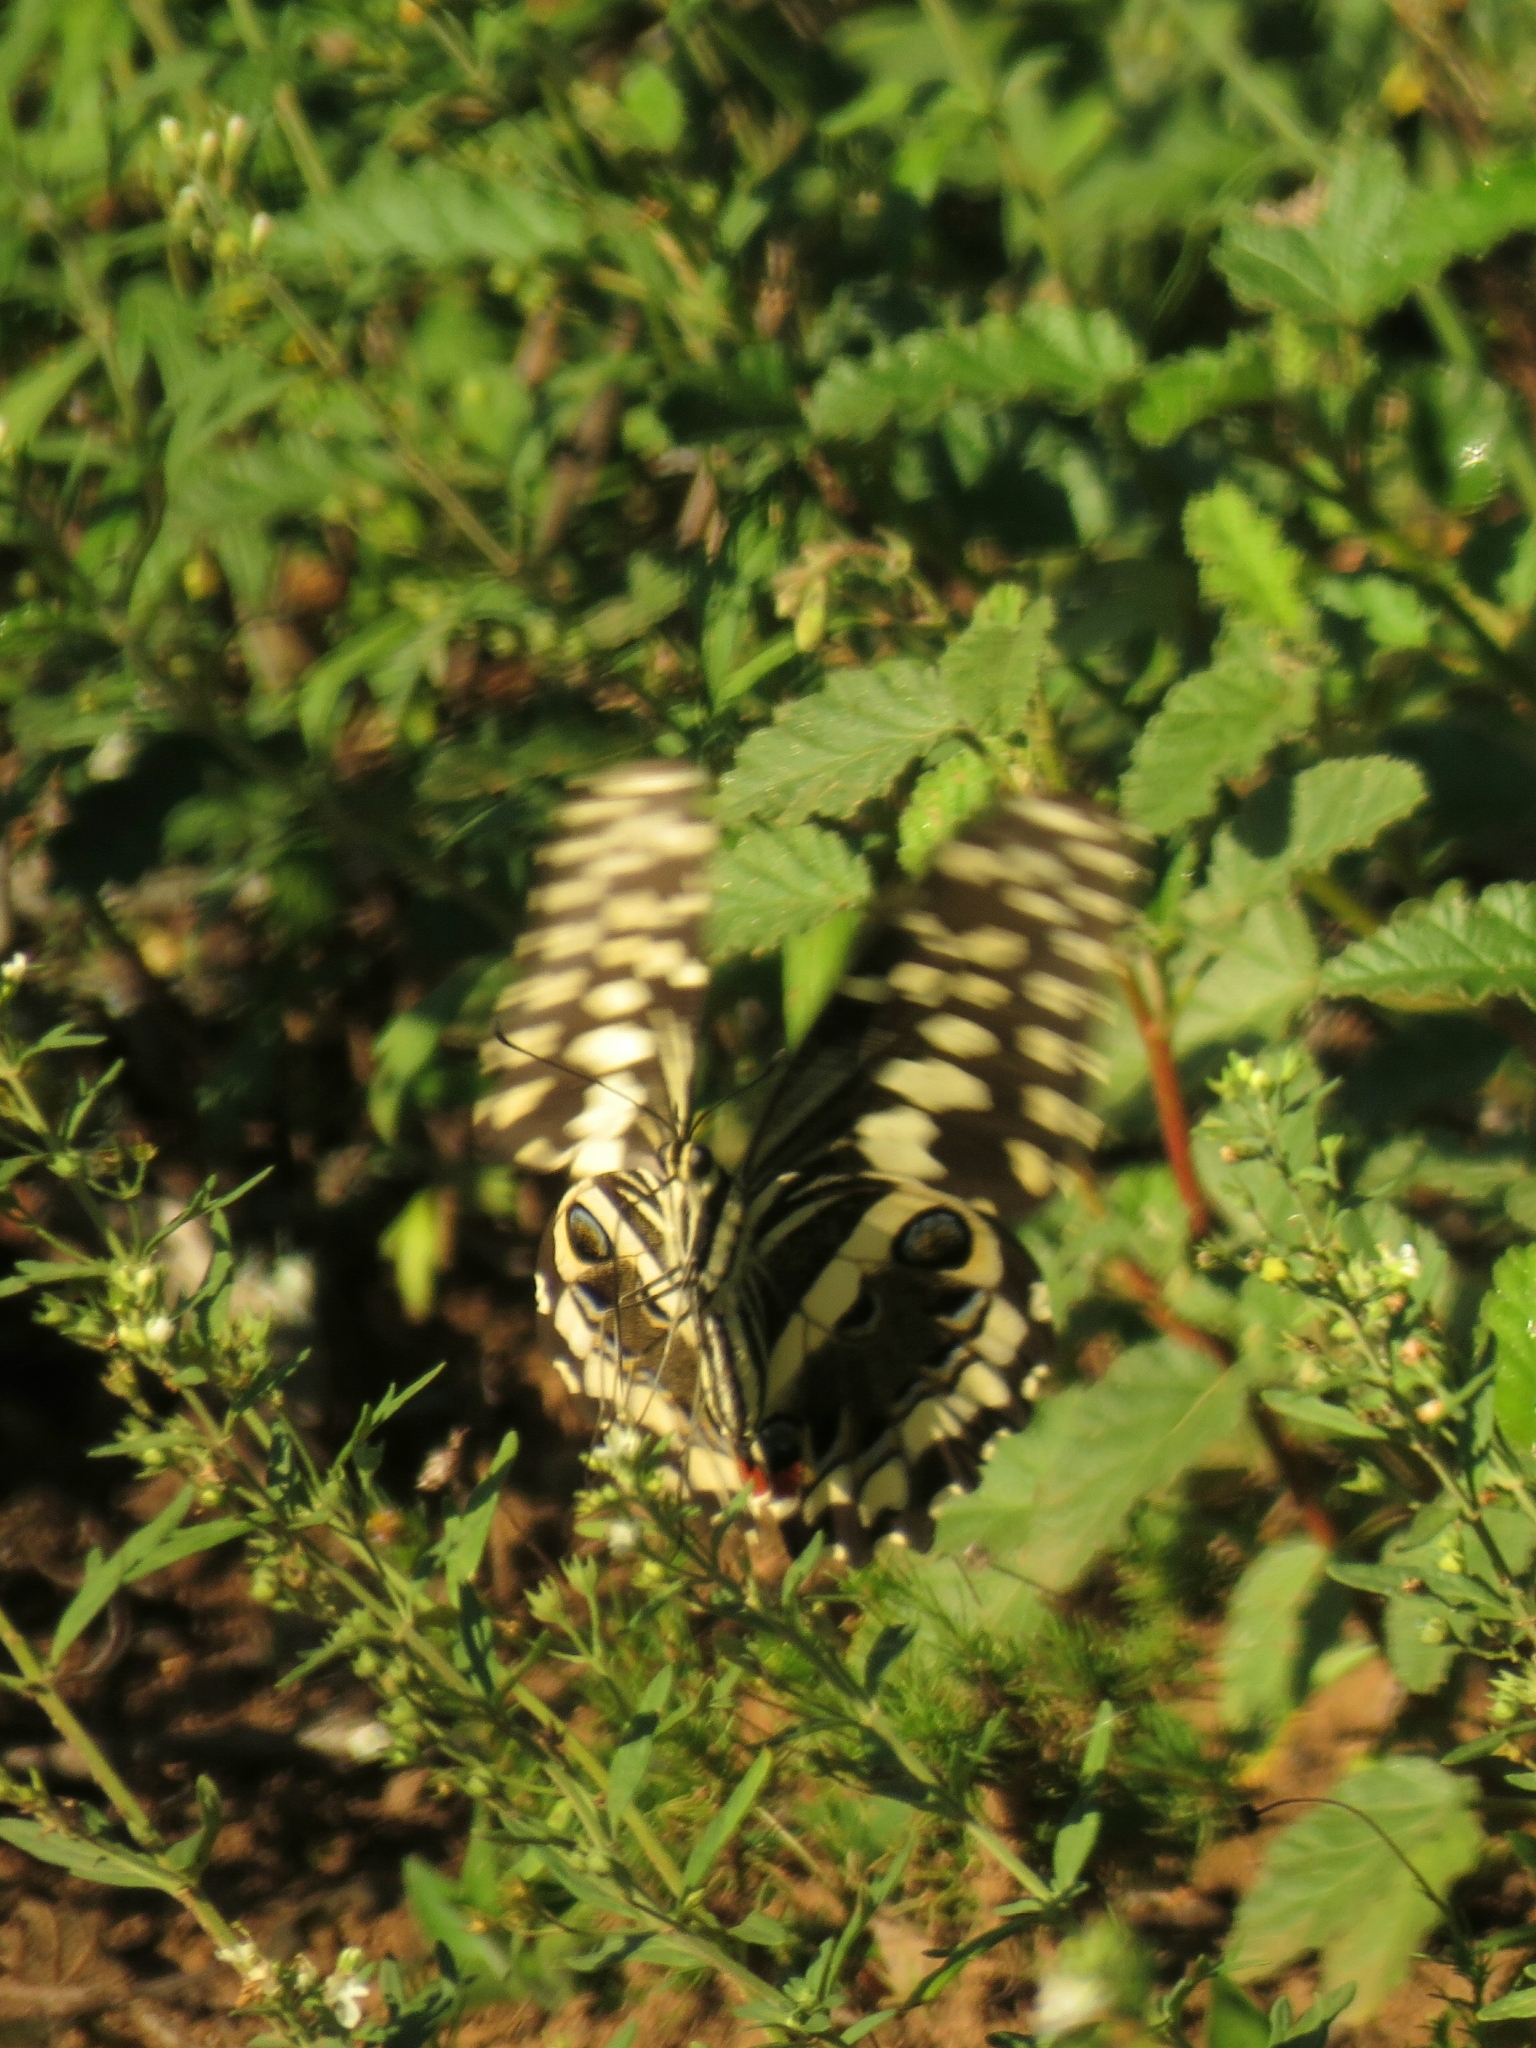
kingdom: Animalia
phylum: Arthropoda
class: Insecta
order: Lepidoptera
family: Papilionidae
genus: Papilio
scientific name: Papilio demodocus
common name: Christmas butterfly
